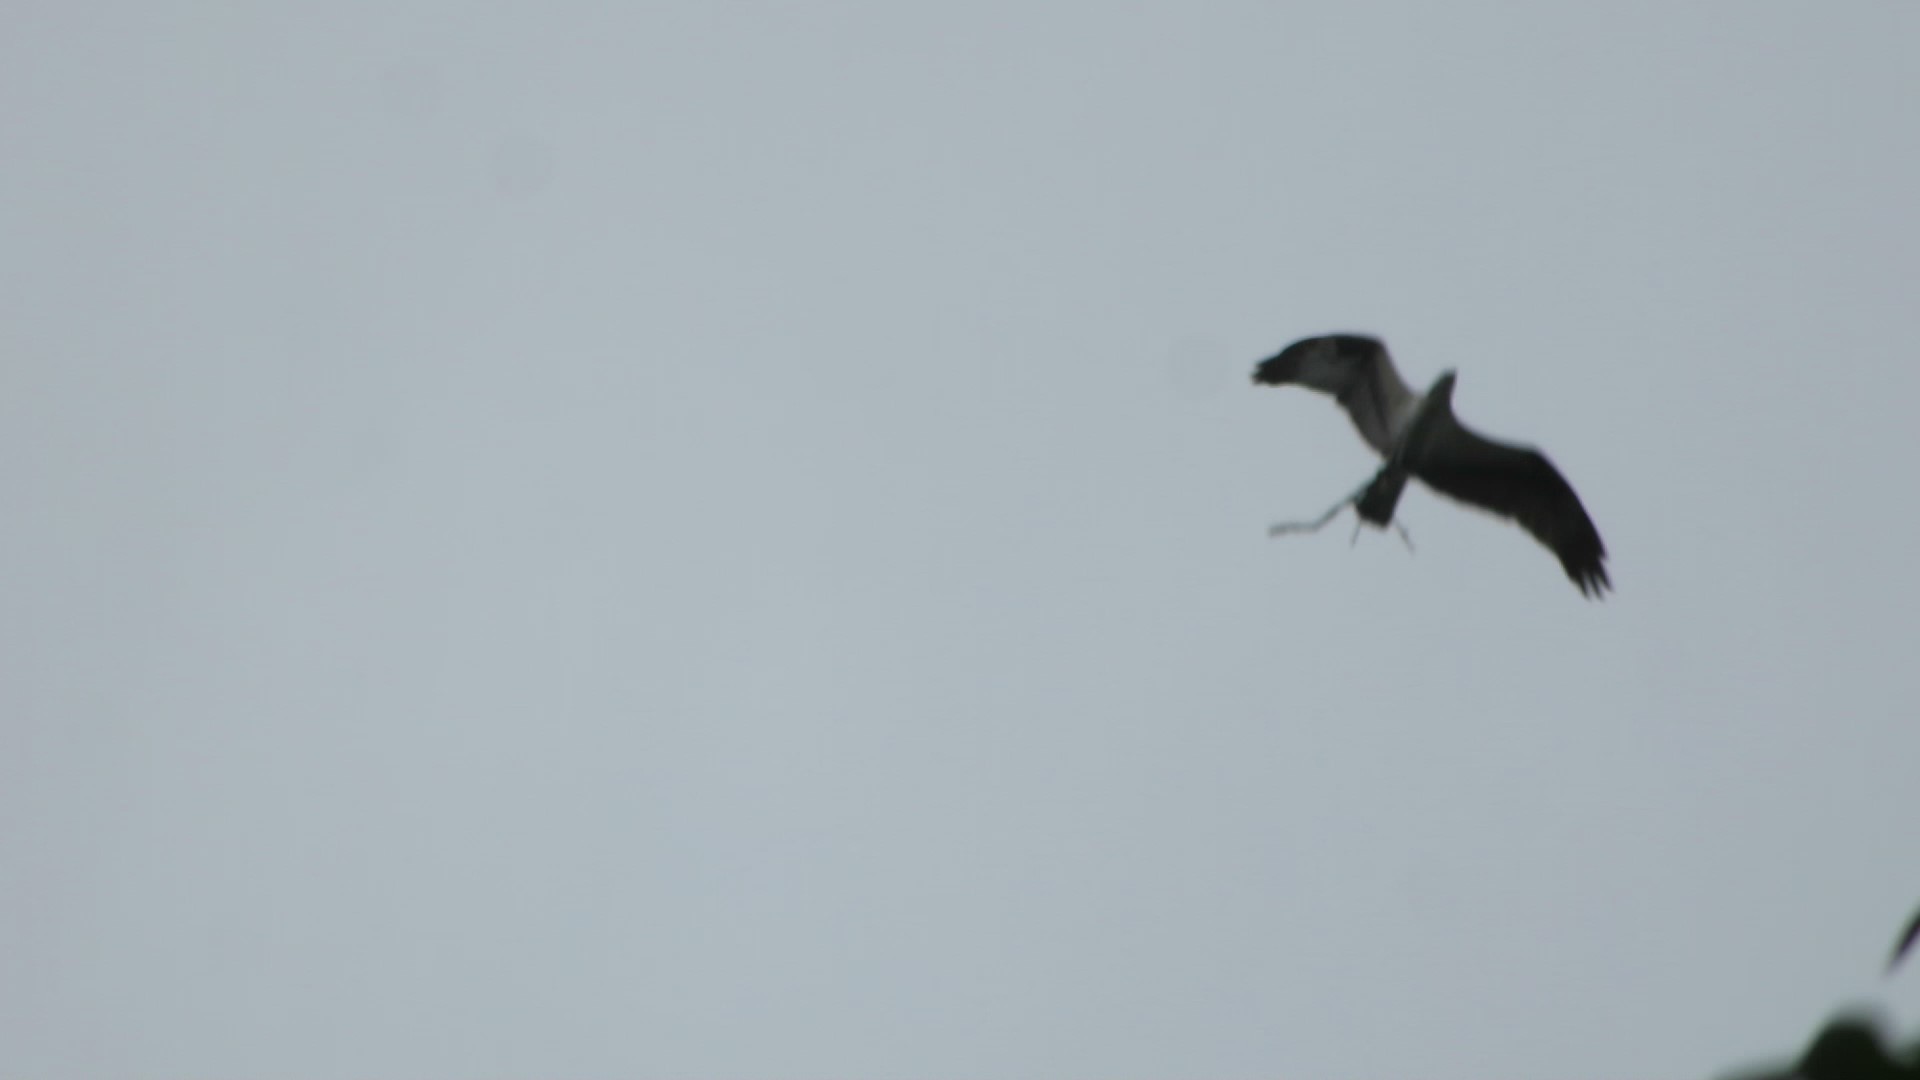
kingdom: Animalia
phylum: Chordata
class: Aves
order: Accipitriformes
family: Pandionidae
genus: Pandion
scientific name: Pandion haliaetus
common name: Osprey
